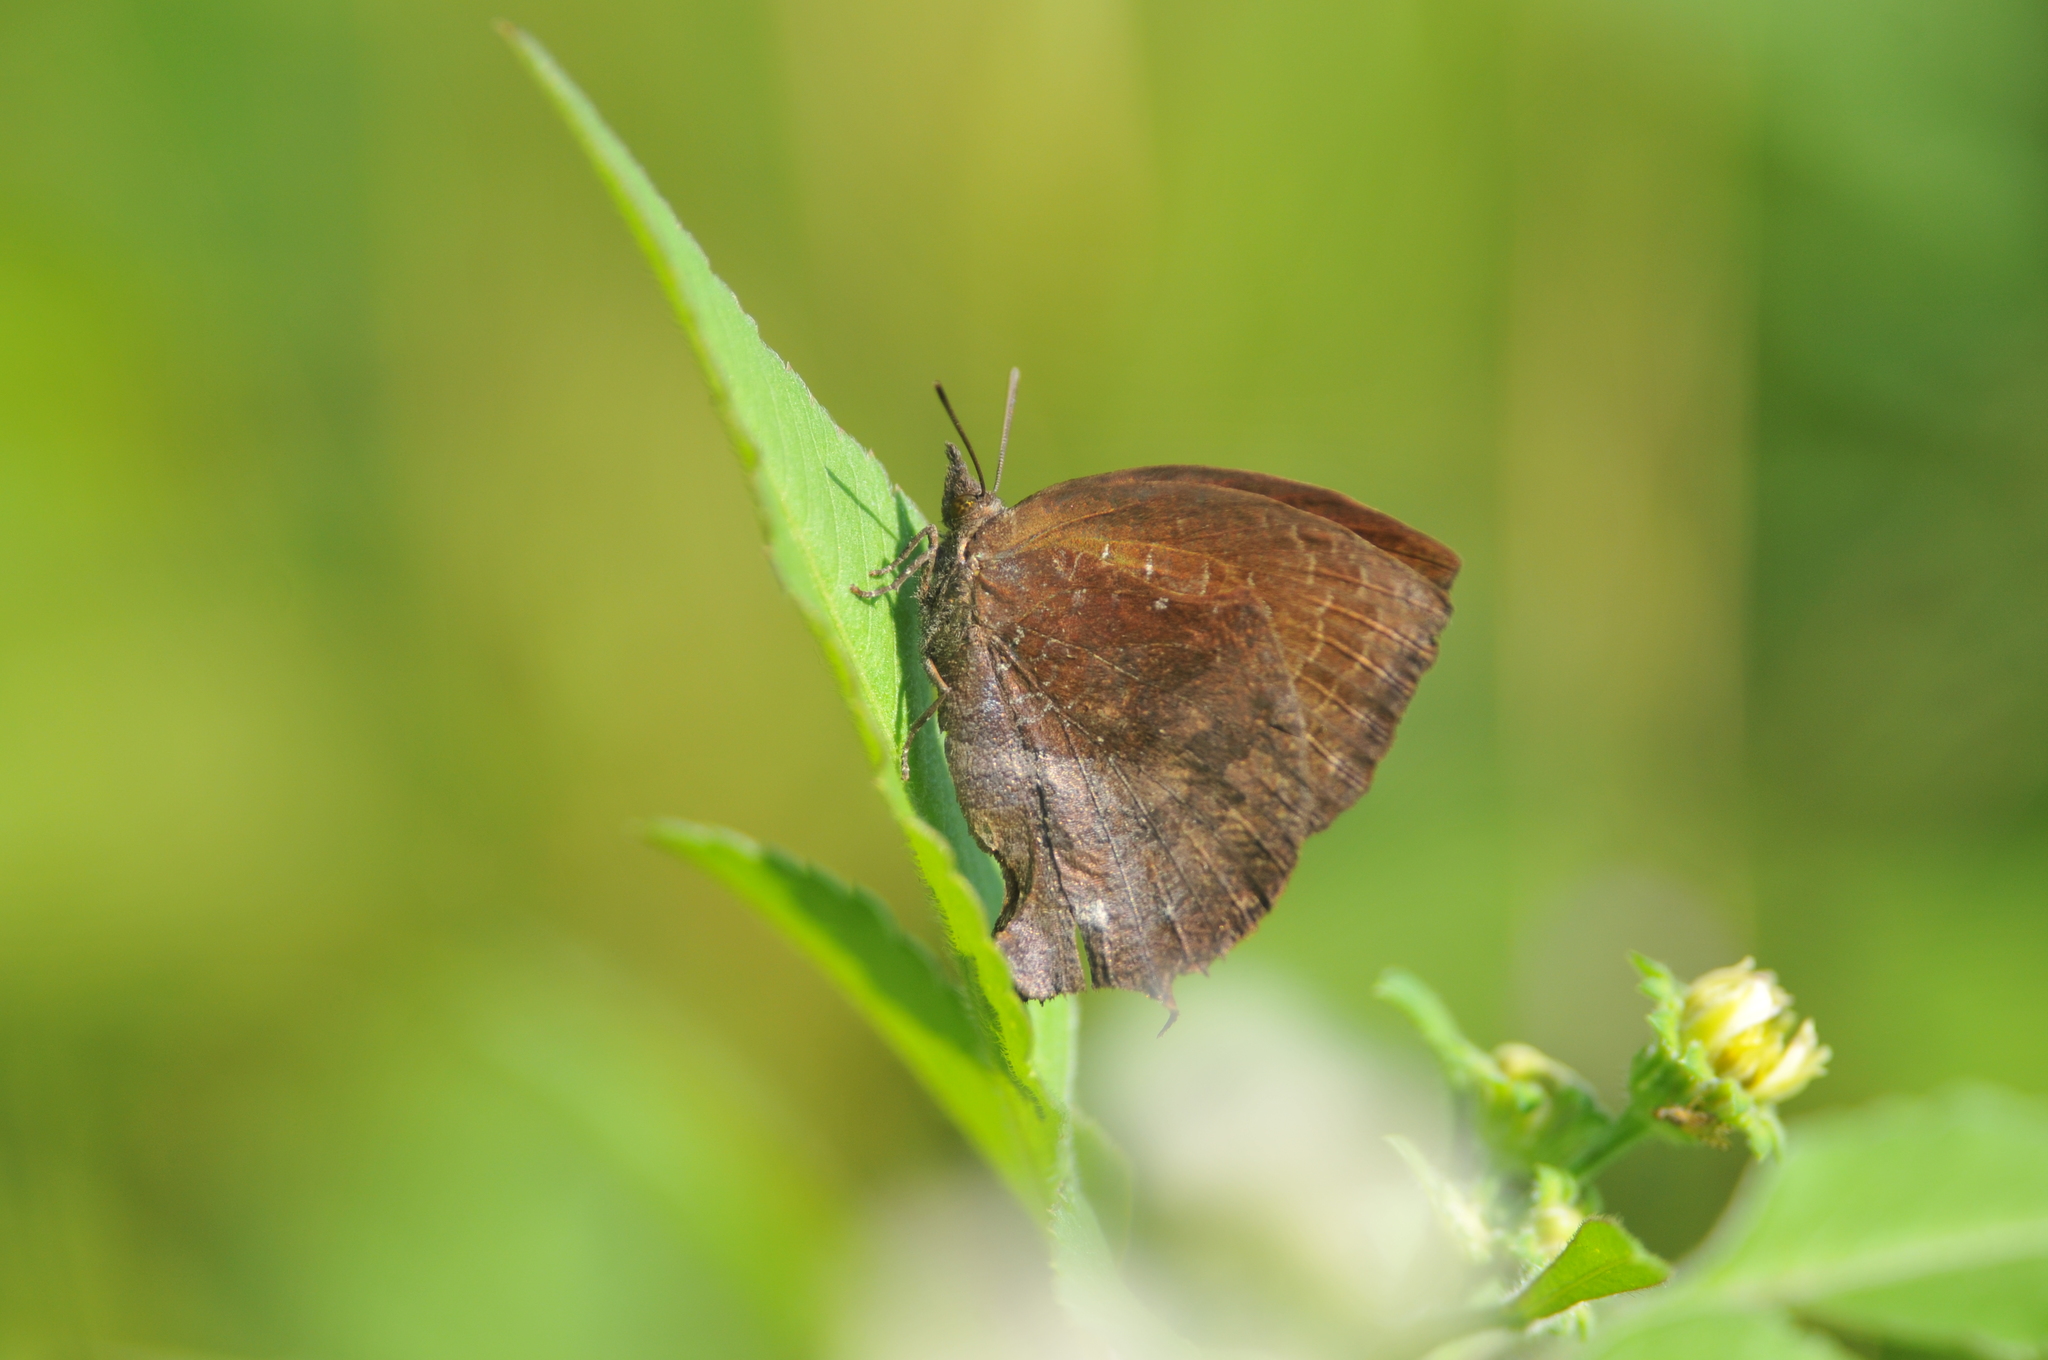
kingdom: Animalia
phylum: Arthropoda
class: Insecta
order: Lepidoptera
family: Lycaenidae
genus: Mahathala
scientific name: Mahathala ameria
